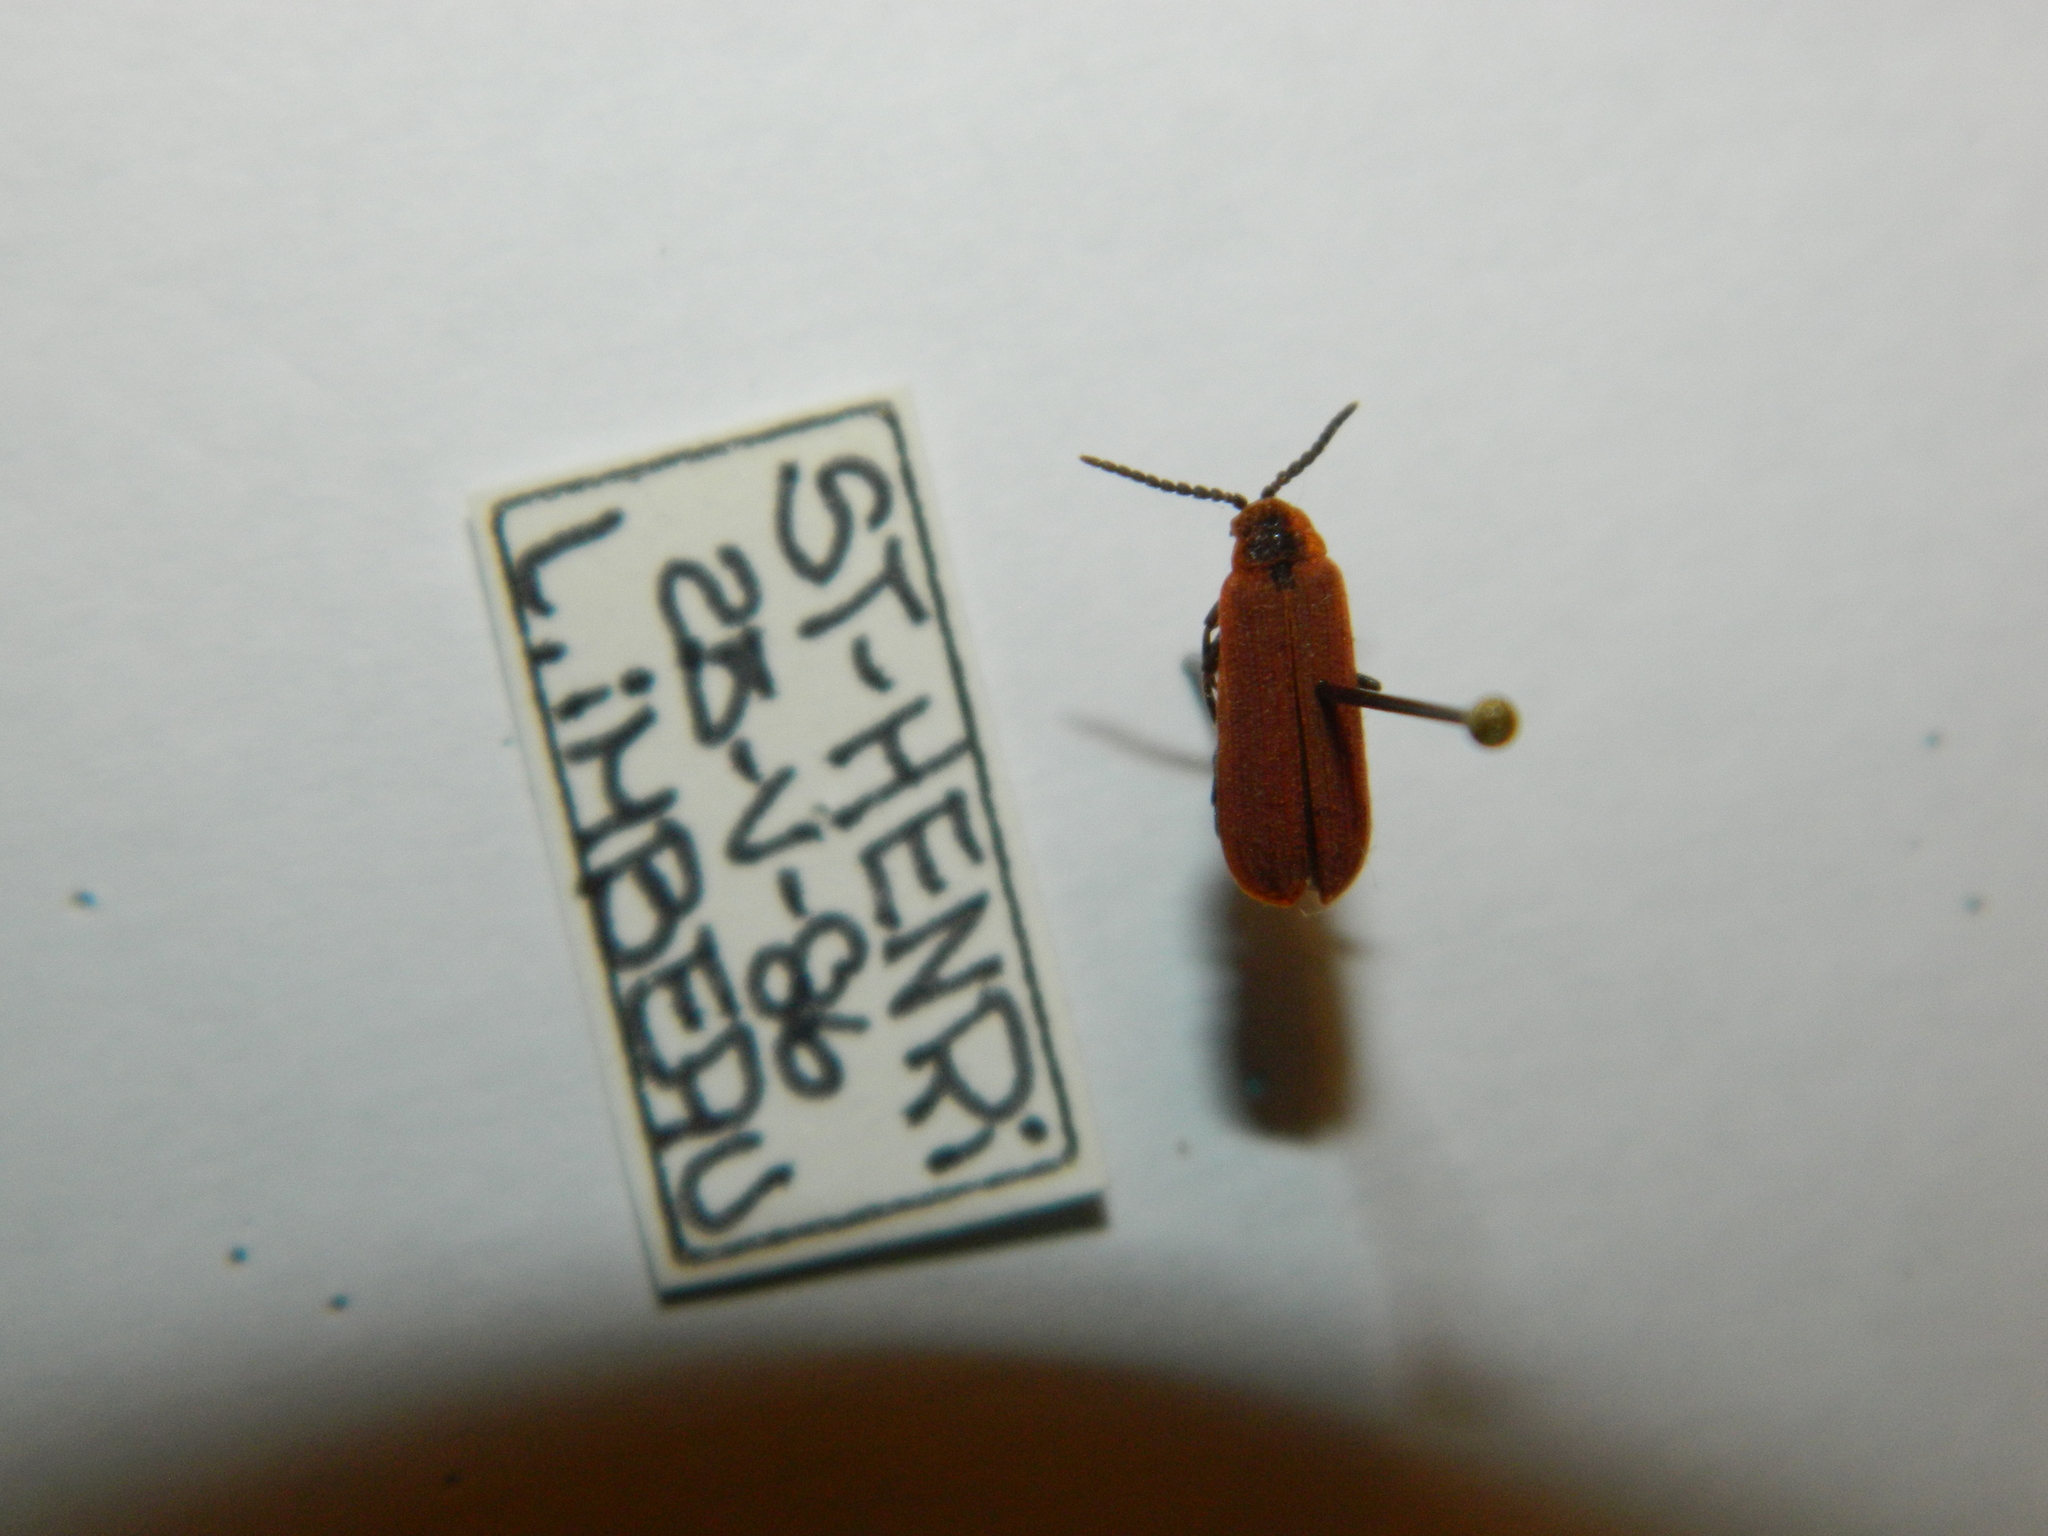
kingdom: Animalia
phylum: Arthropoda
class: Insecta
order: Coleoptera
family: Lycidae
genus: Dictyoptera
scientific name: Dictyoptera aurora
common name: Golden net-winged beetle
